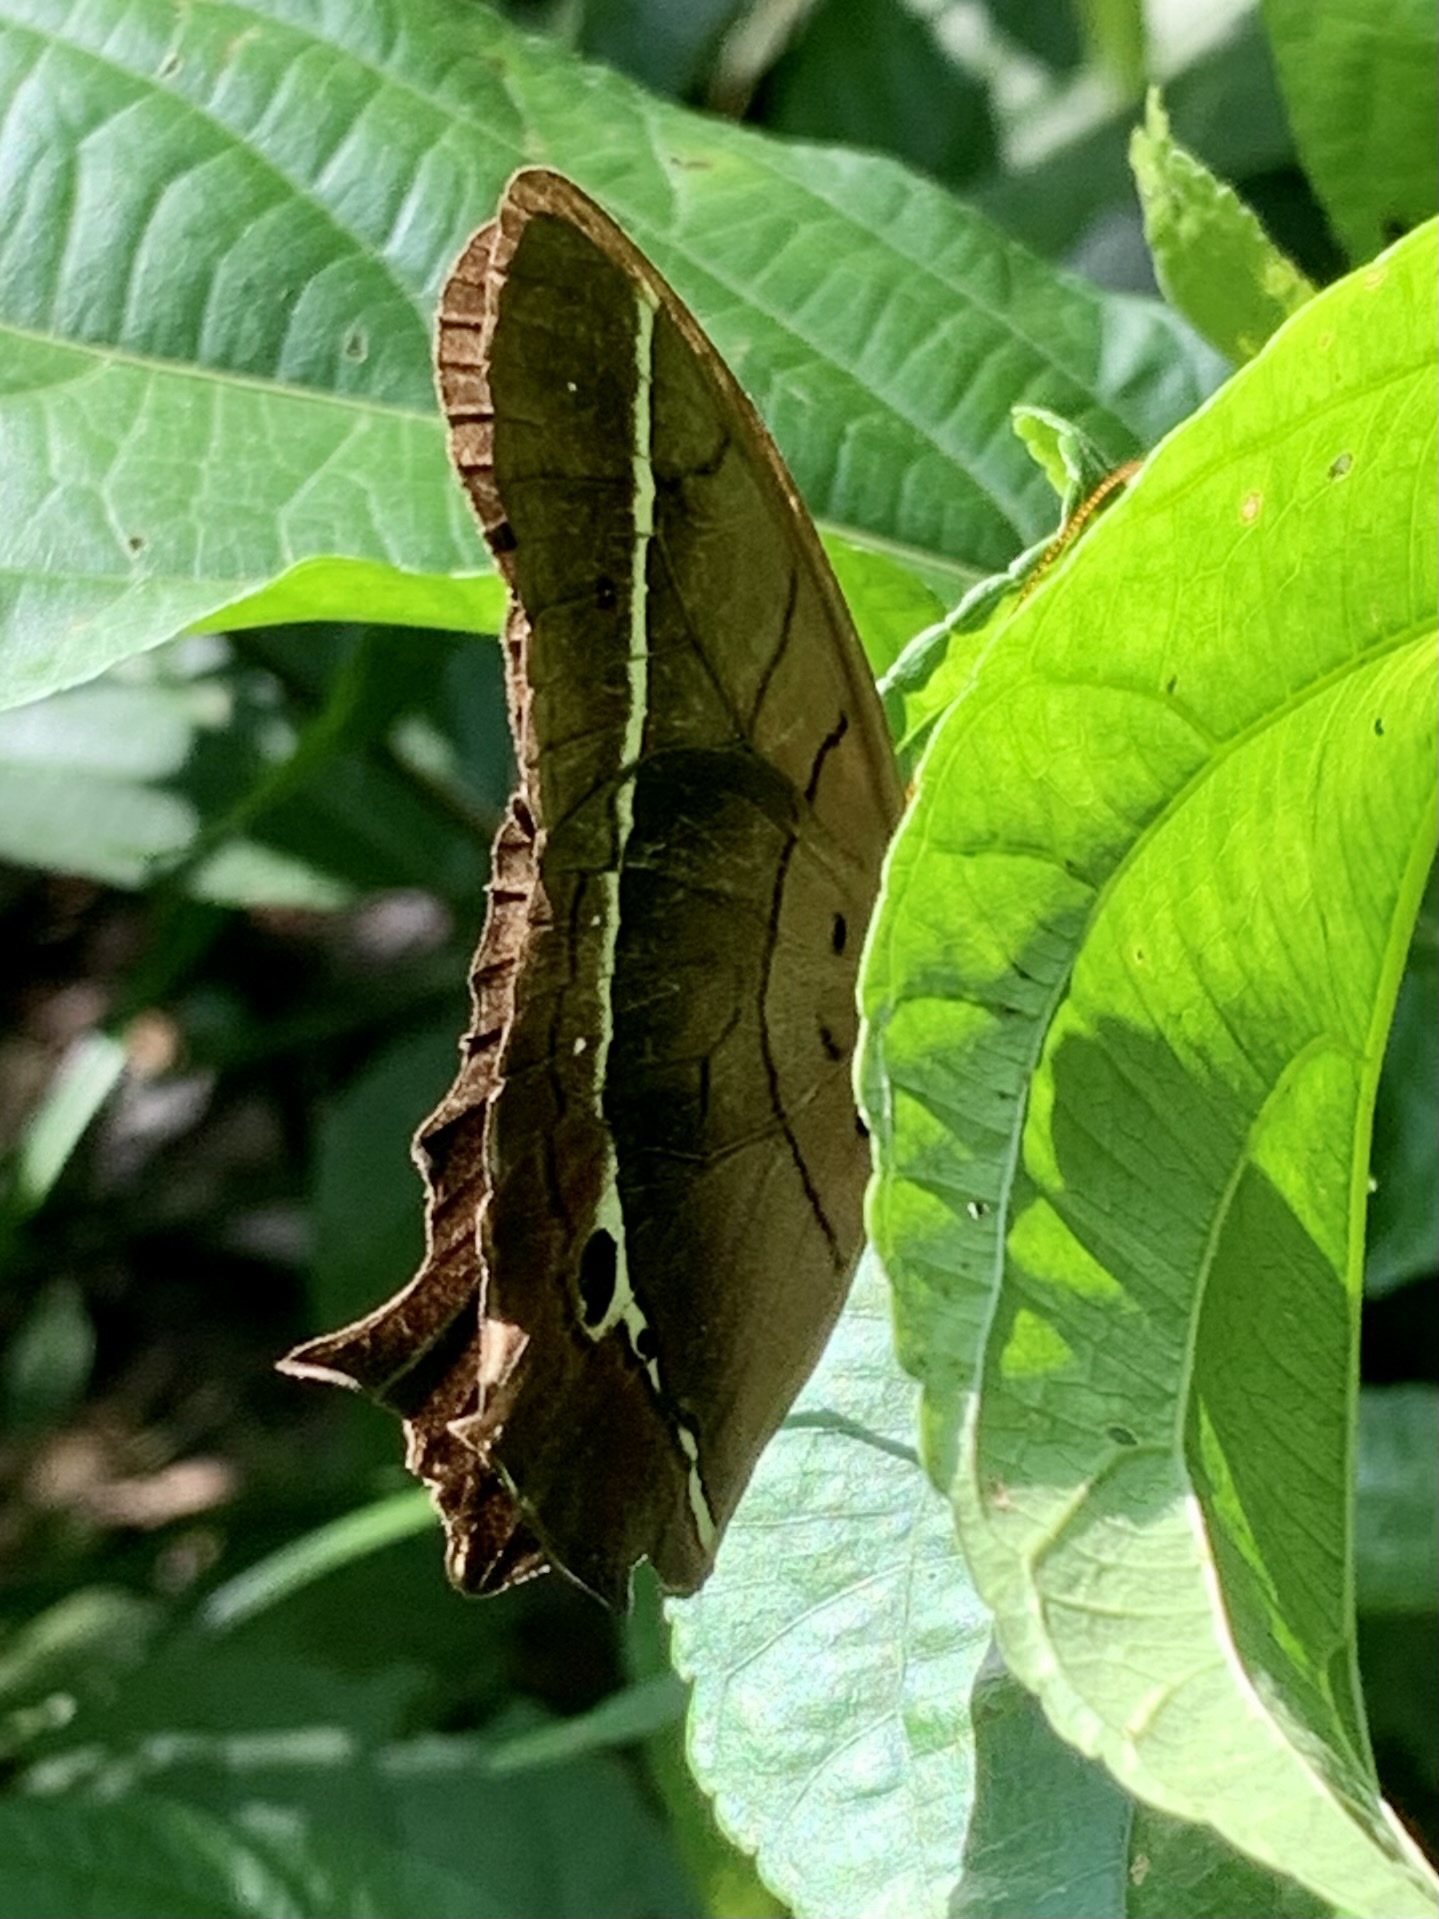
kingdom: Animalia
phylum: Arthropoda
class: Insecta
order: Lepidoptera
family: Nymphalidae
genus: Antirrhea
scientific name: Antirrhea philoctetes
